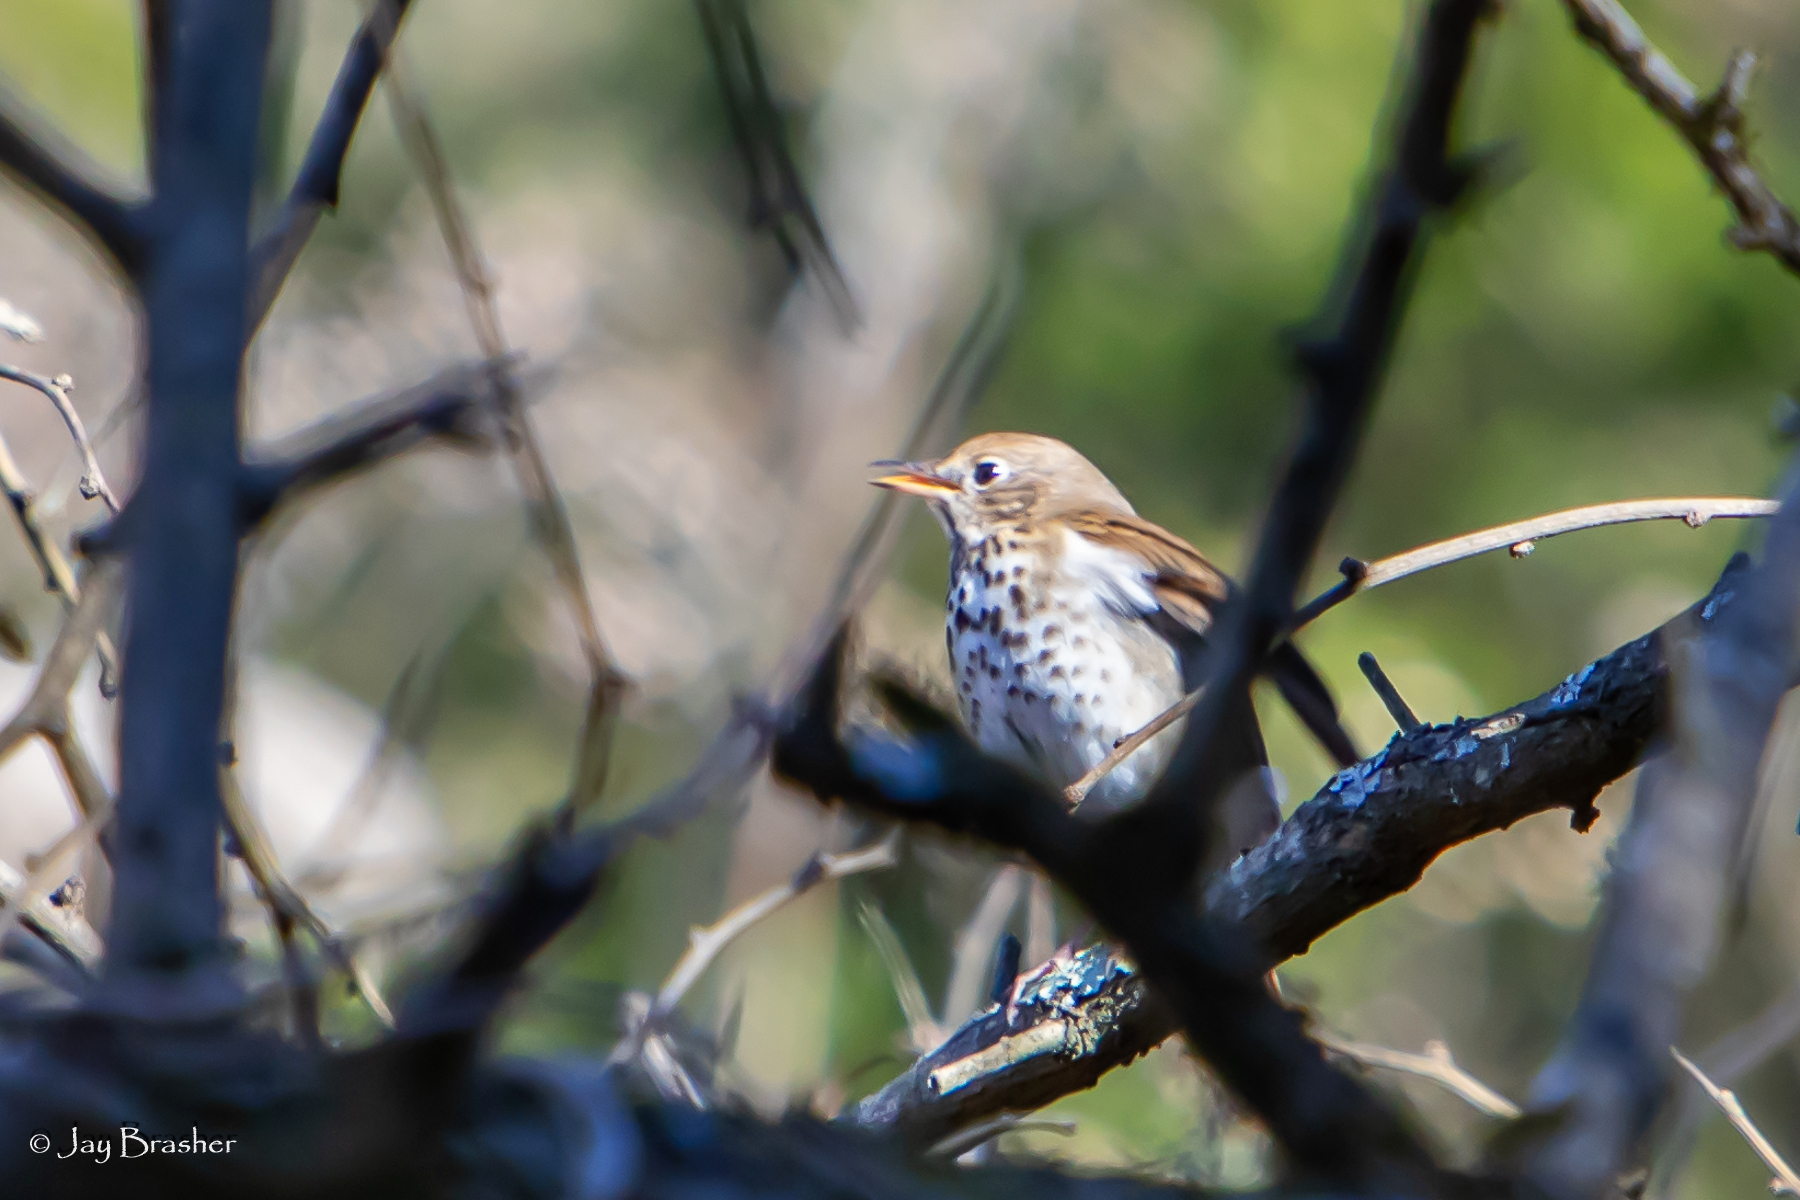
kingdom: Animalia
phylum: Chordata
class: Aves
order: Passeriformes
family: Turdidae
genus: Catharus
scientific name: Catharus guttatus
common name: Hermit thrush
